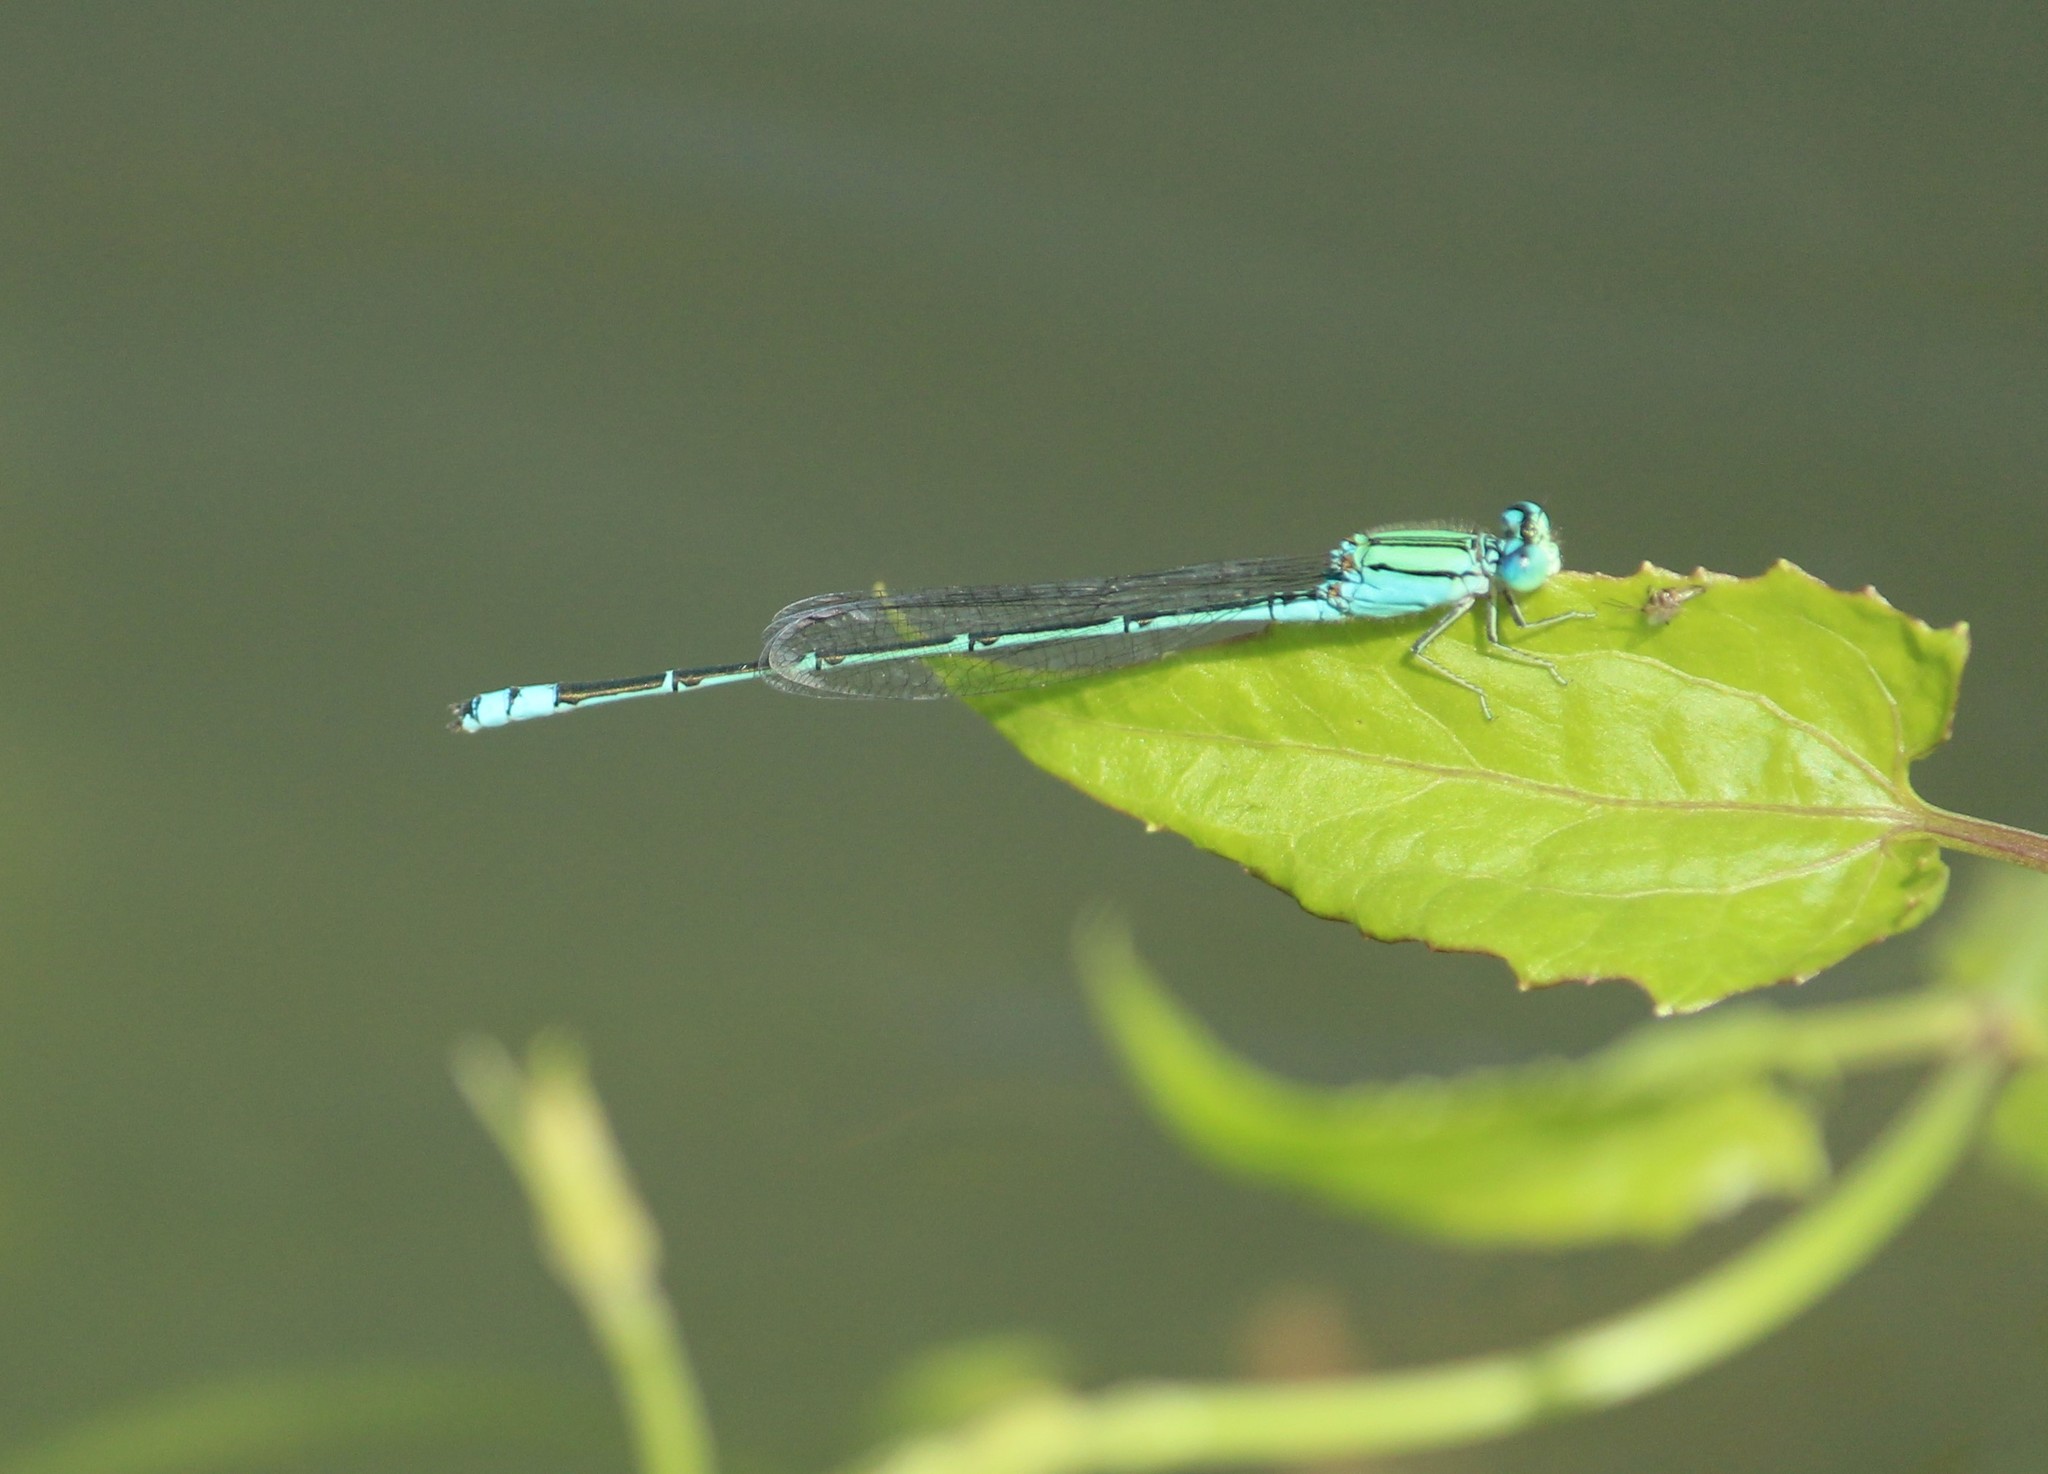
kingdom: Animalia
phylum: Arthropoda
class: Insecta
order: Odonata
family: Coenagrionidae
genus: Pseudagrion
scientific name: Pseudagrion decorum
